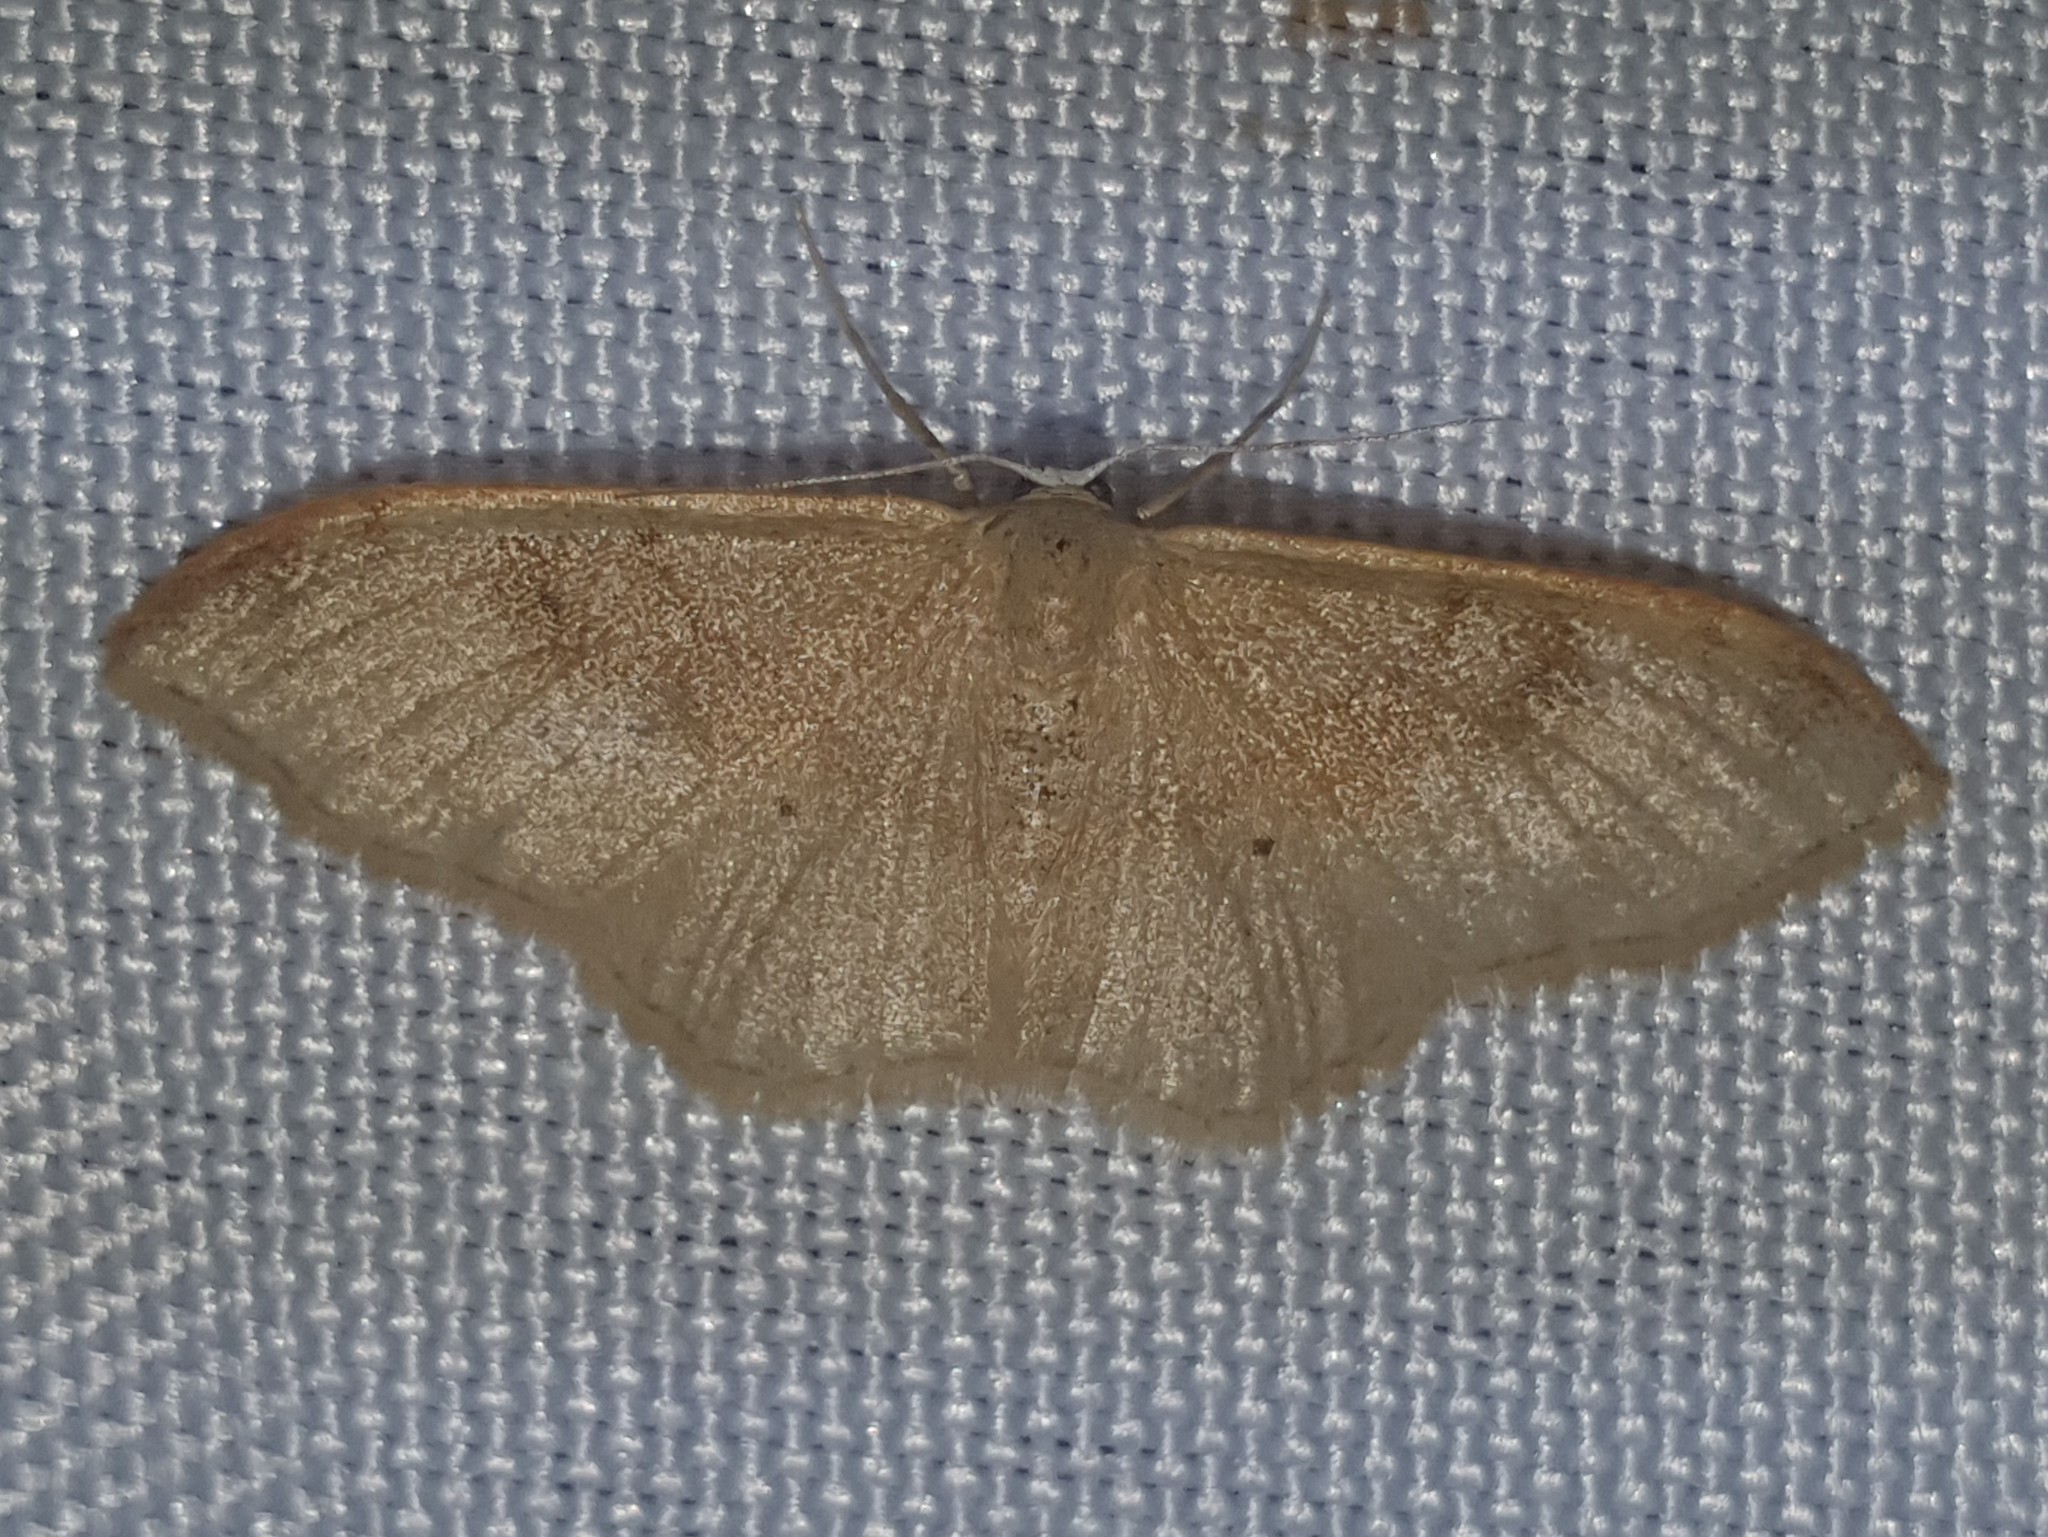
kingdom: Animalia
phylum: Arthropoda
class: Insecta
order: Lepidoptera
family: Geometridae
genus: Idaea
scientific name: Idaea degeneraria
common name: Portland ribbon wave
